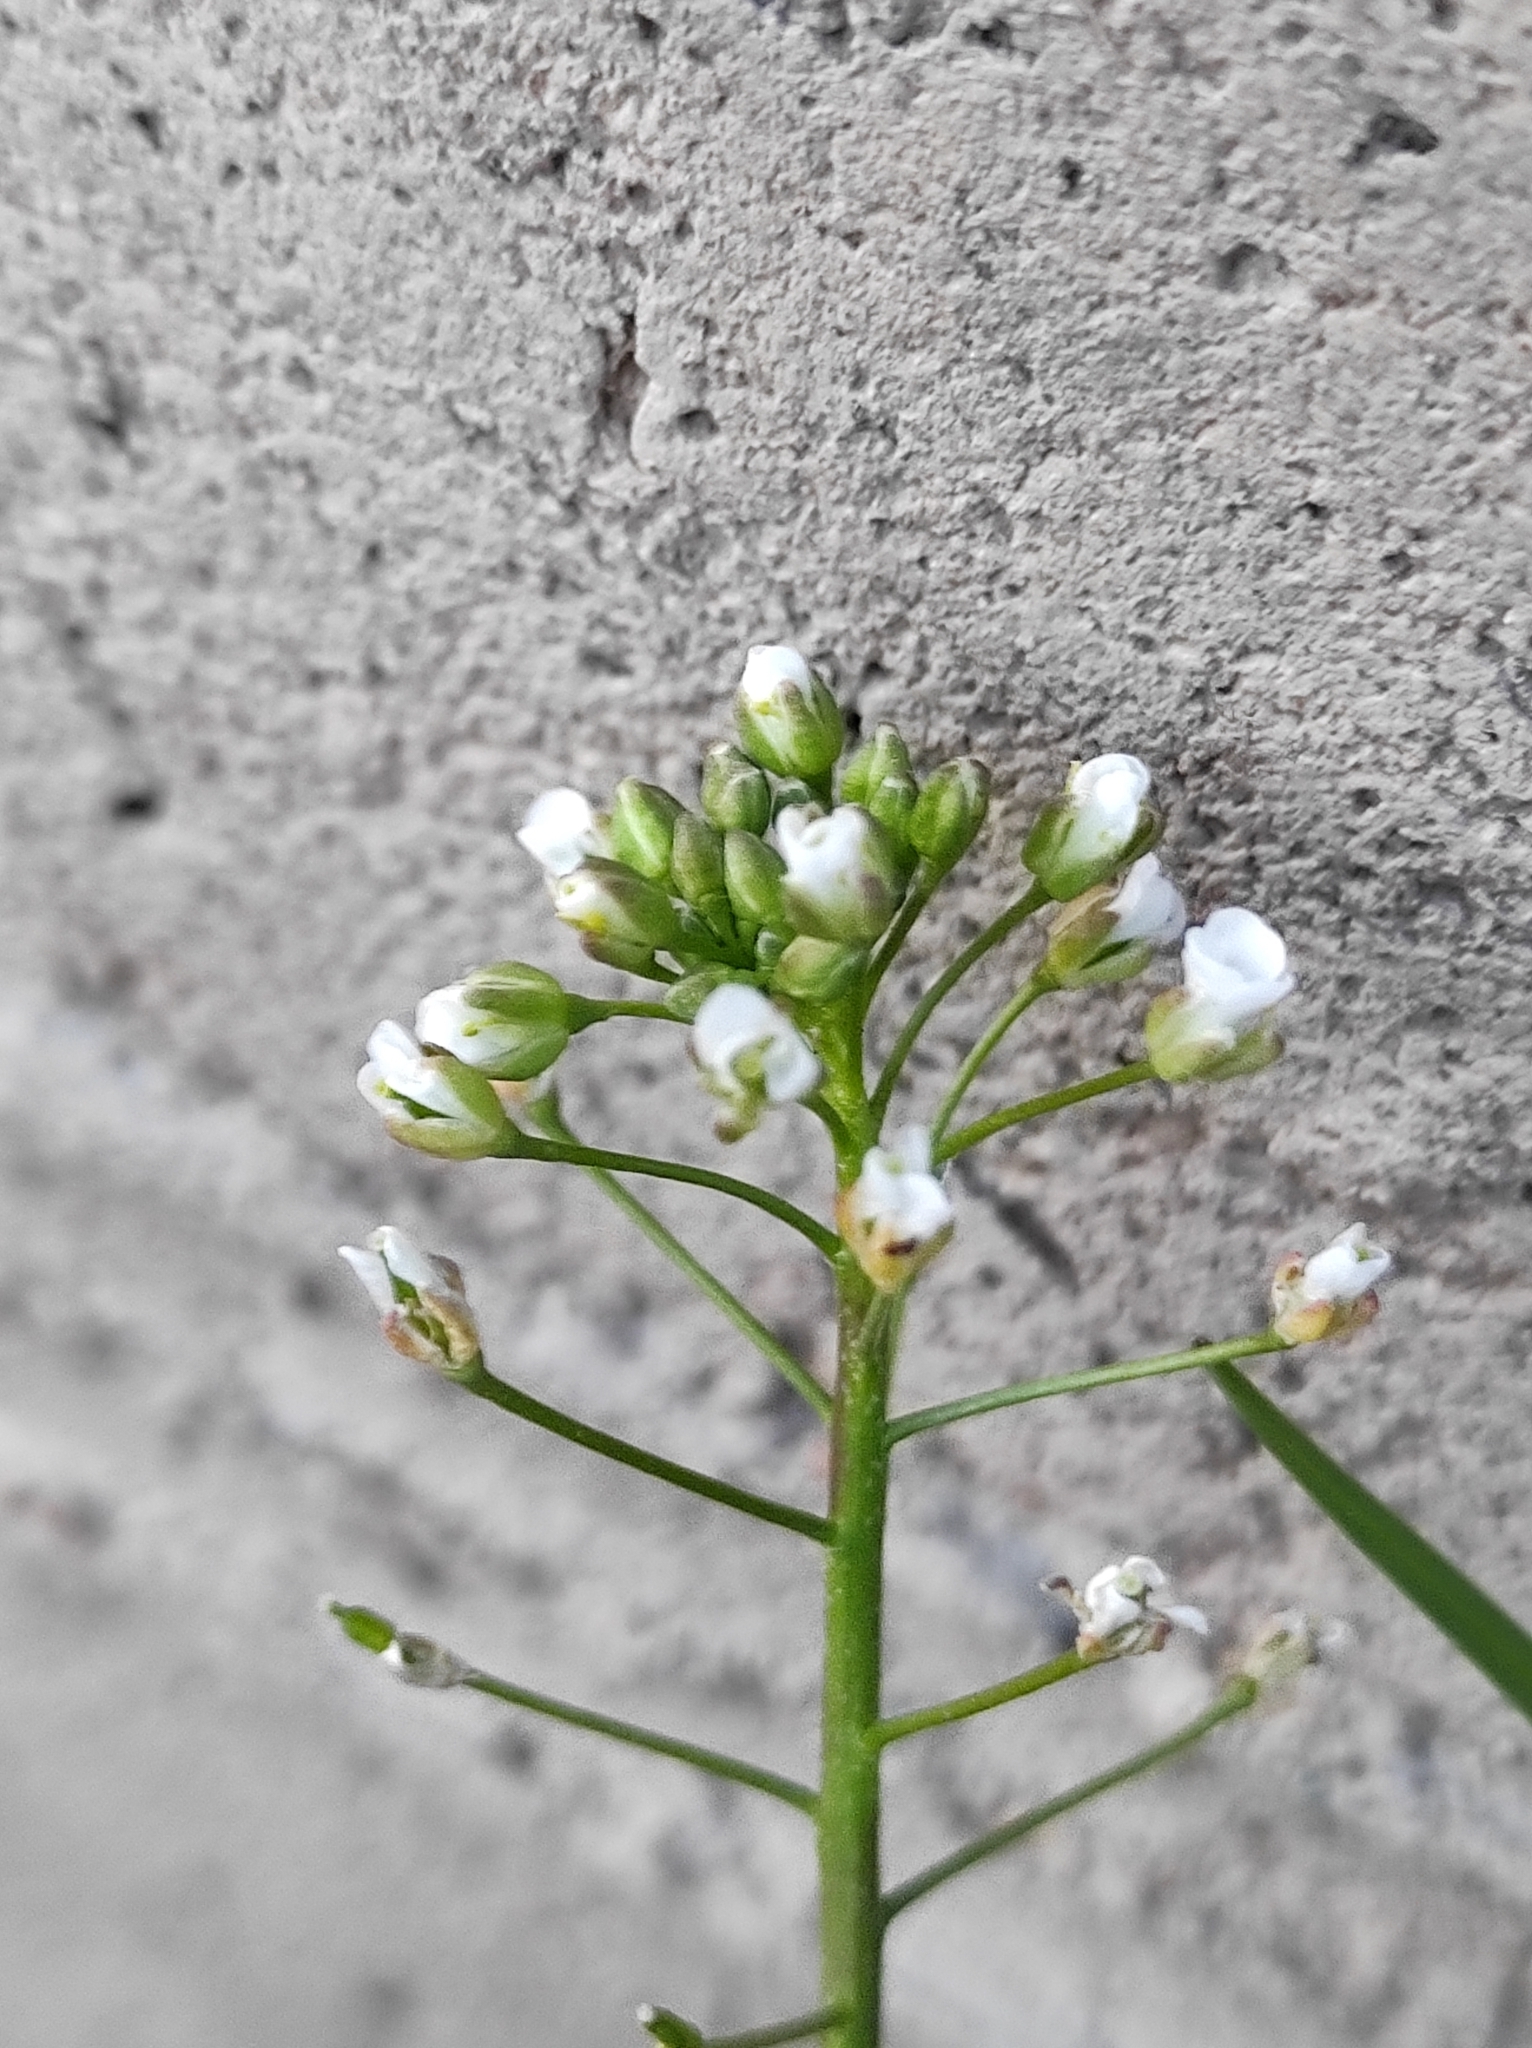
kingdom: Plantae
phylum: Tracheophyta
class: Magnoliopsida
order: Brassicales
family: Brassicaceae
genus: Capsella
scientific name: Capsella bursa-pastoris
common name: Shepherd's purse
